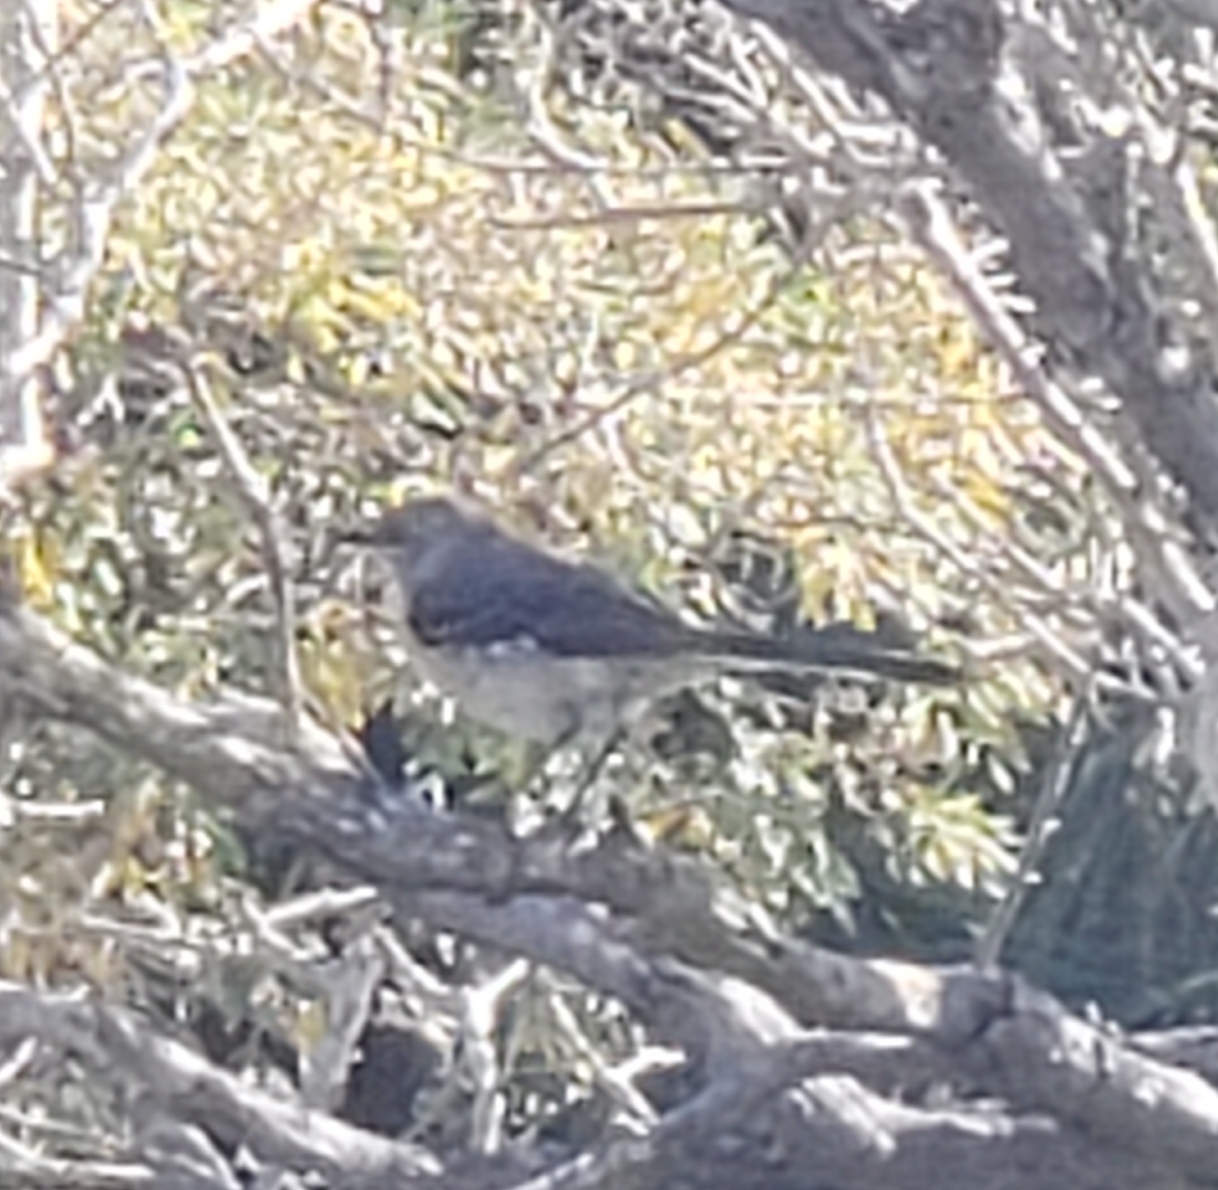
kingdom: Animalia
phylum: Chordata
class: Aves
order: Passeriformes
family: Mimidae
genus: Mimus
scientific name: Mimus polyglottos
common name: Northern mockingbird
